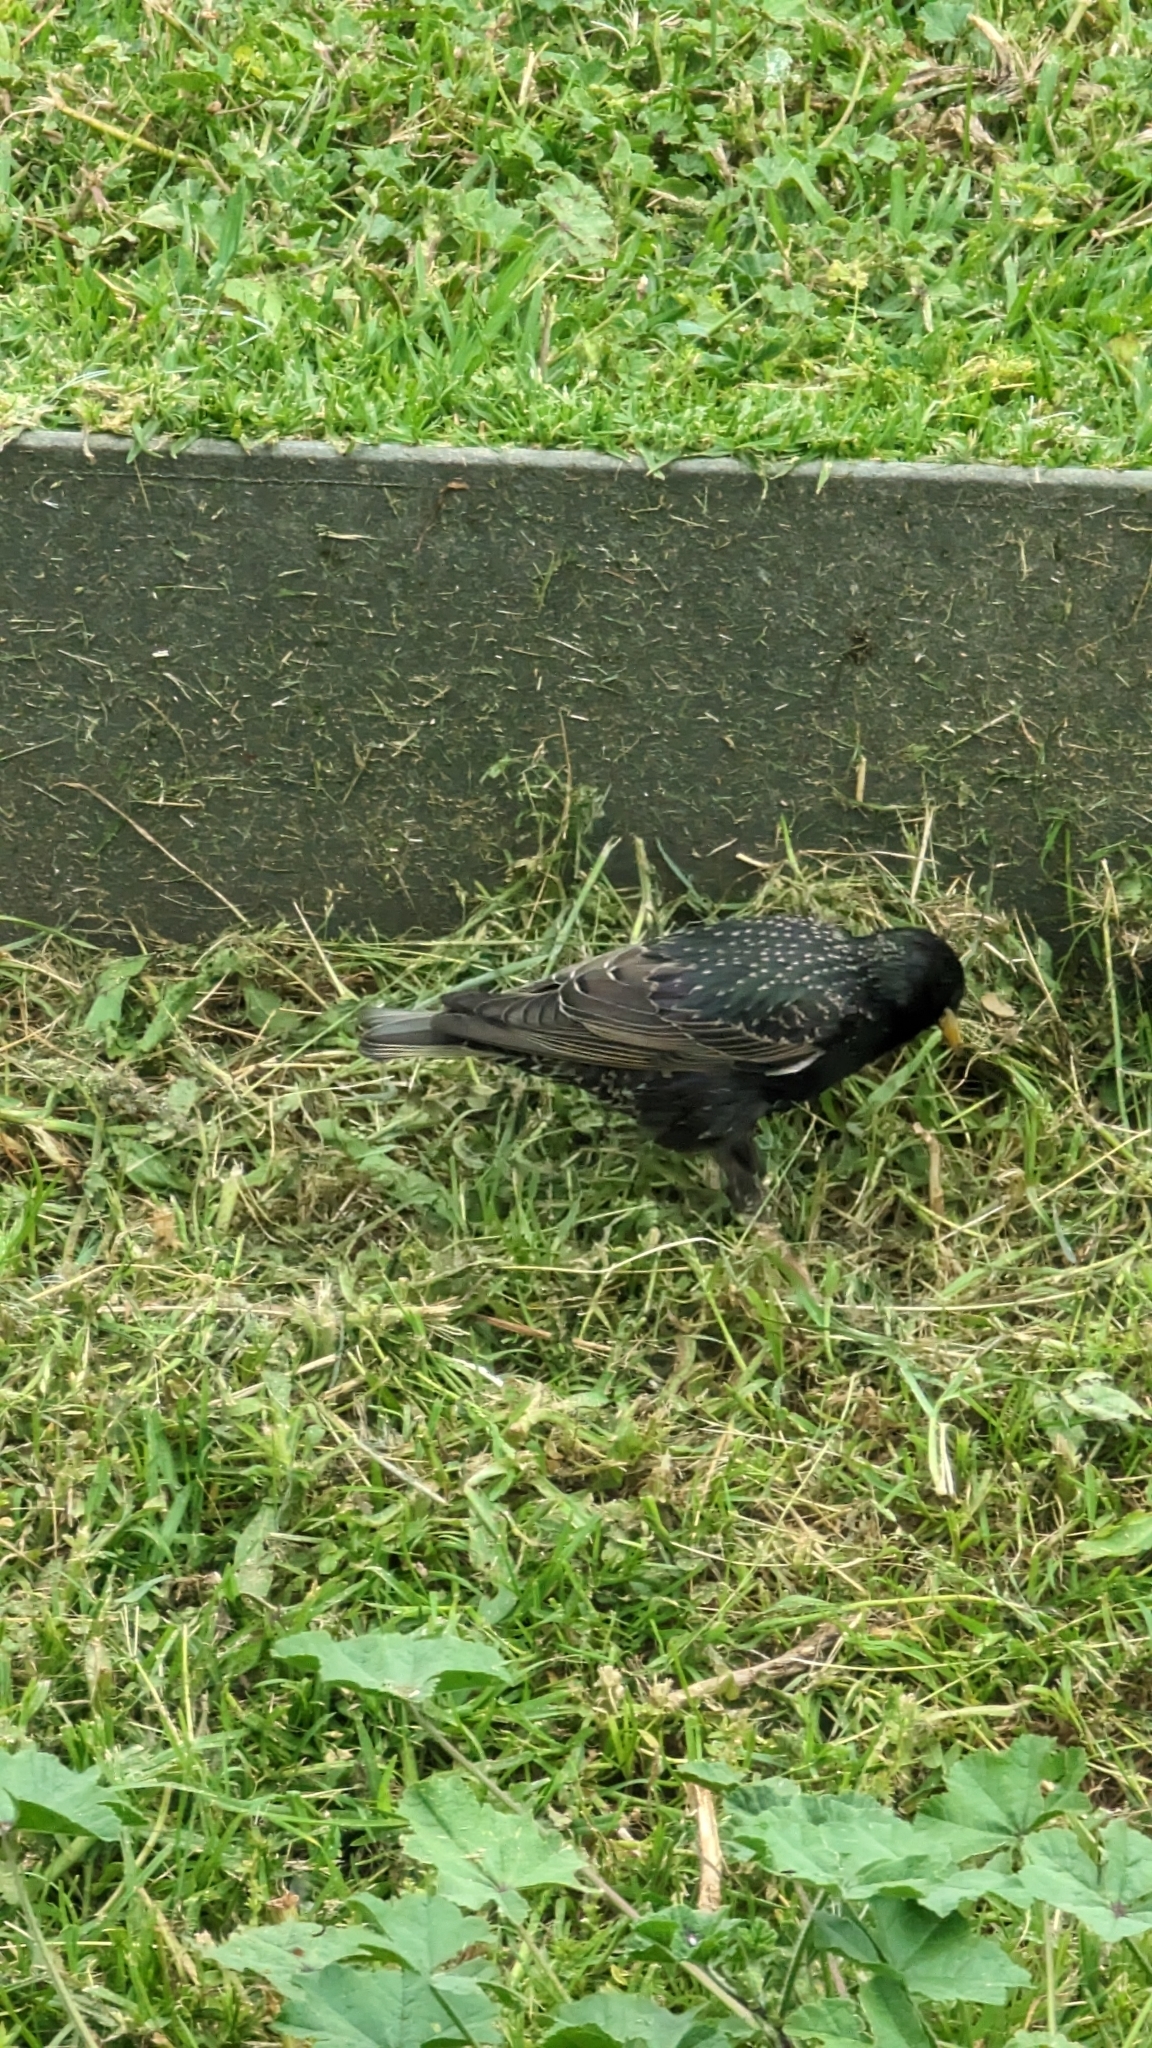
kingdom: Animalia
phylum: Chordata
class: Aves
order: Passeriformes
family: Sturnidae
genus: Sturnus
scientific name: Sturnus vulgaris
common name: Common starling
